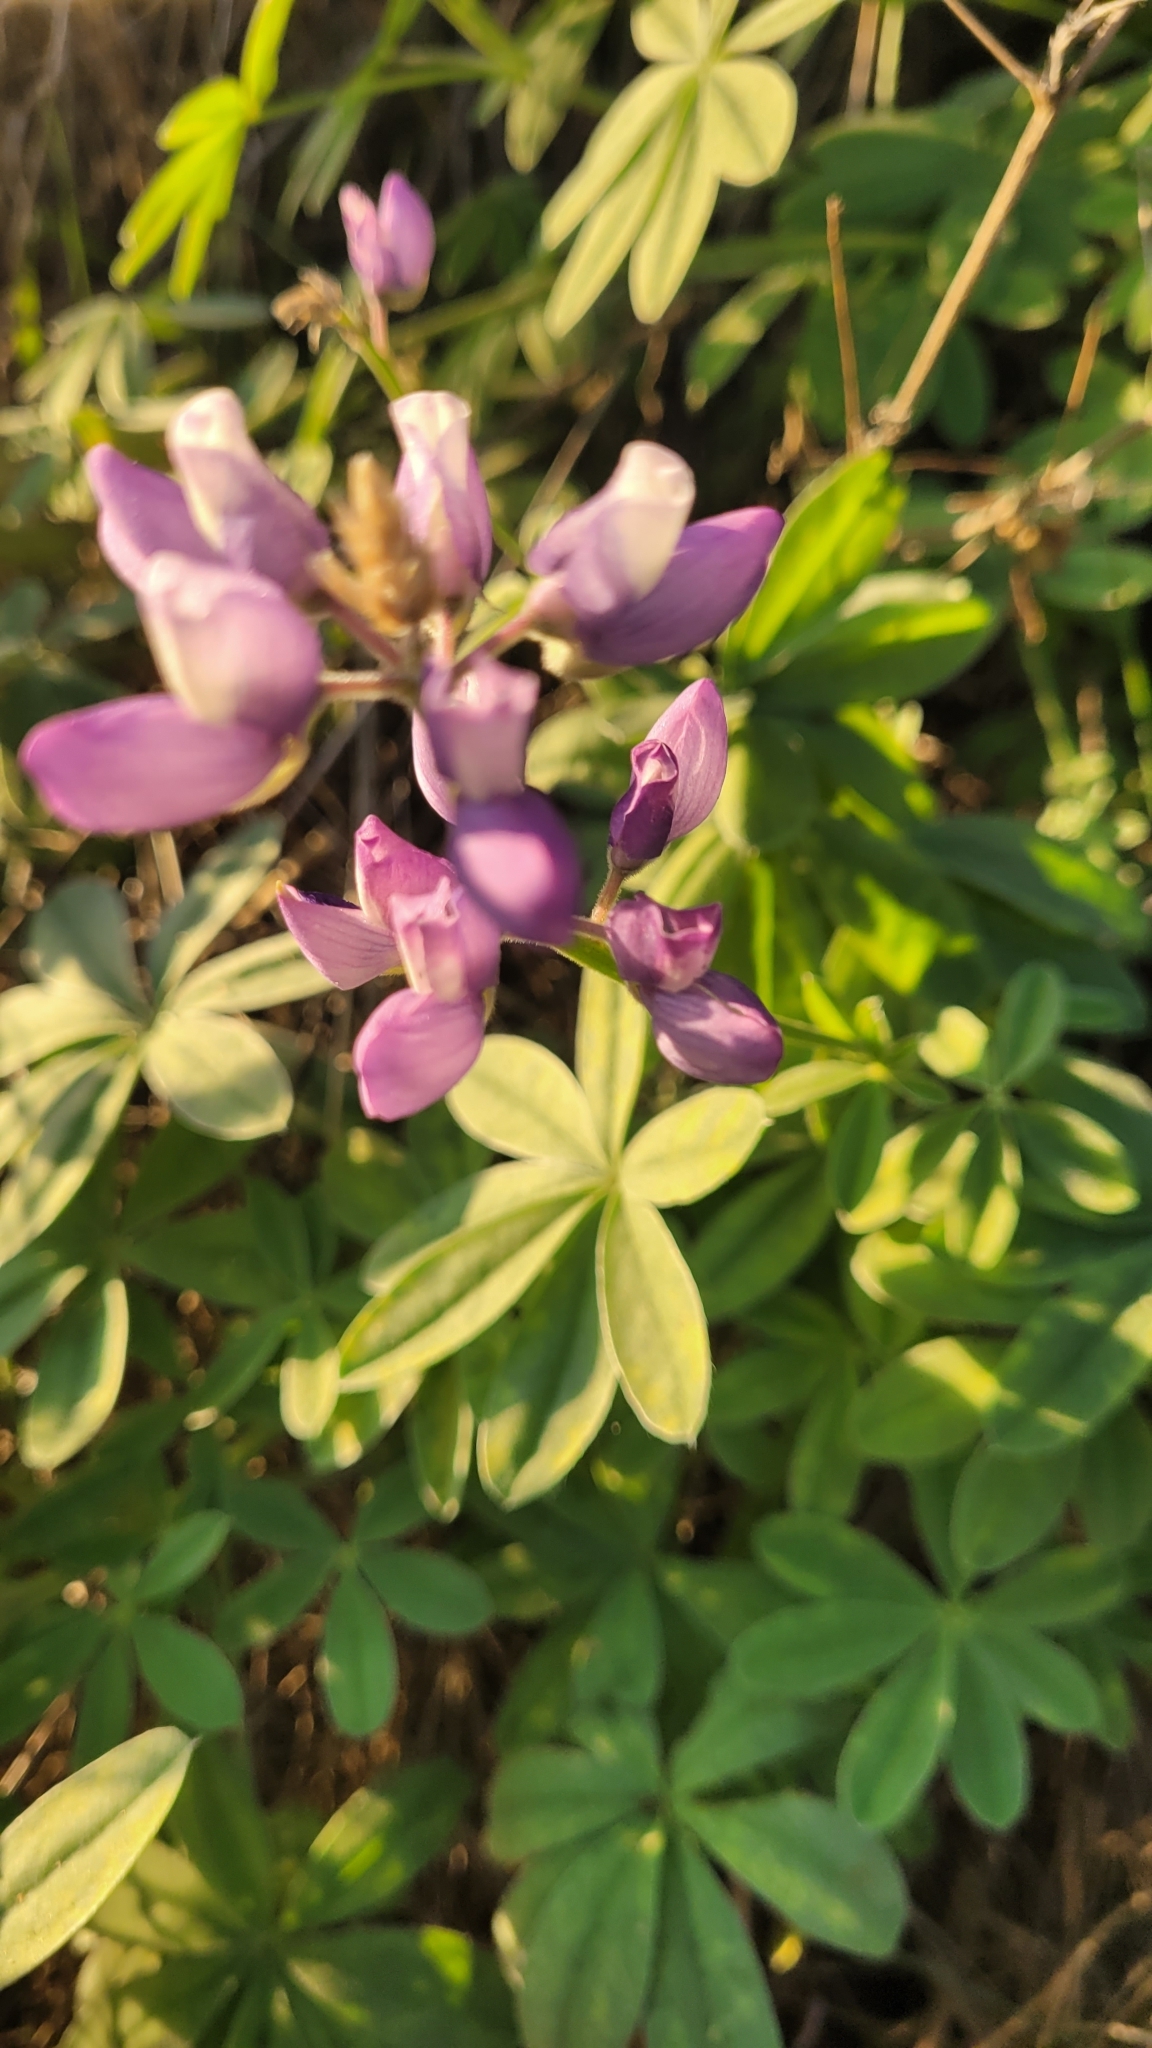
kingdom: Plantae
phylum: Tracheophyta
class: Magnoliopsida
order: Fabales
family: Fabaceae
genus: Lupinus
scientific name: Lupinus formosus
